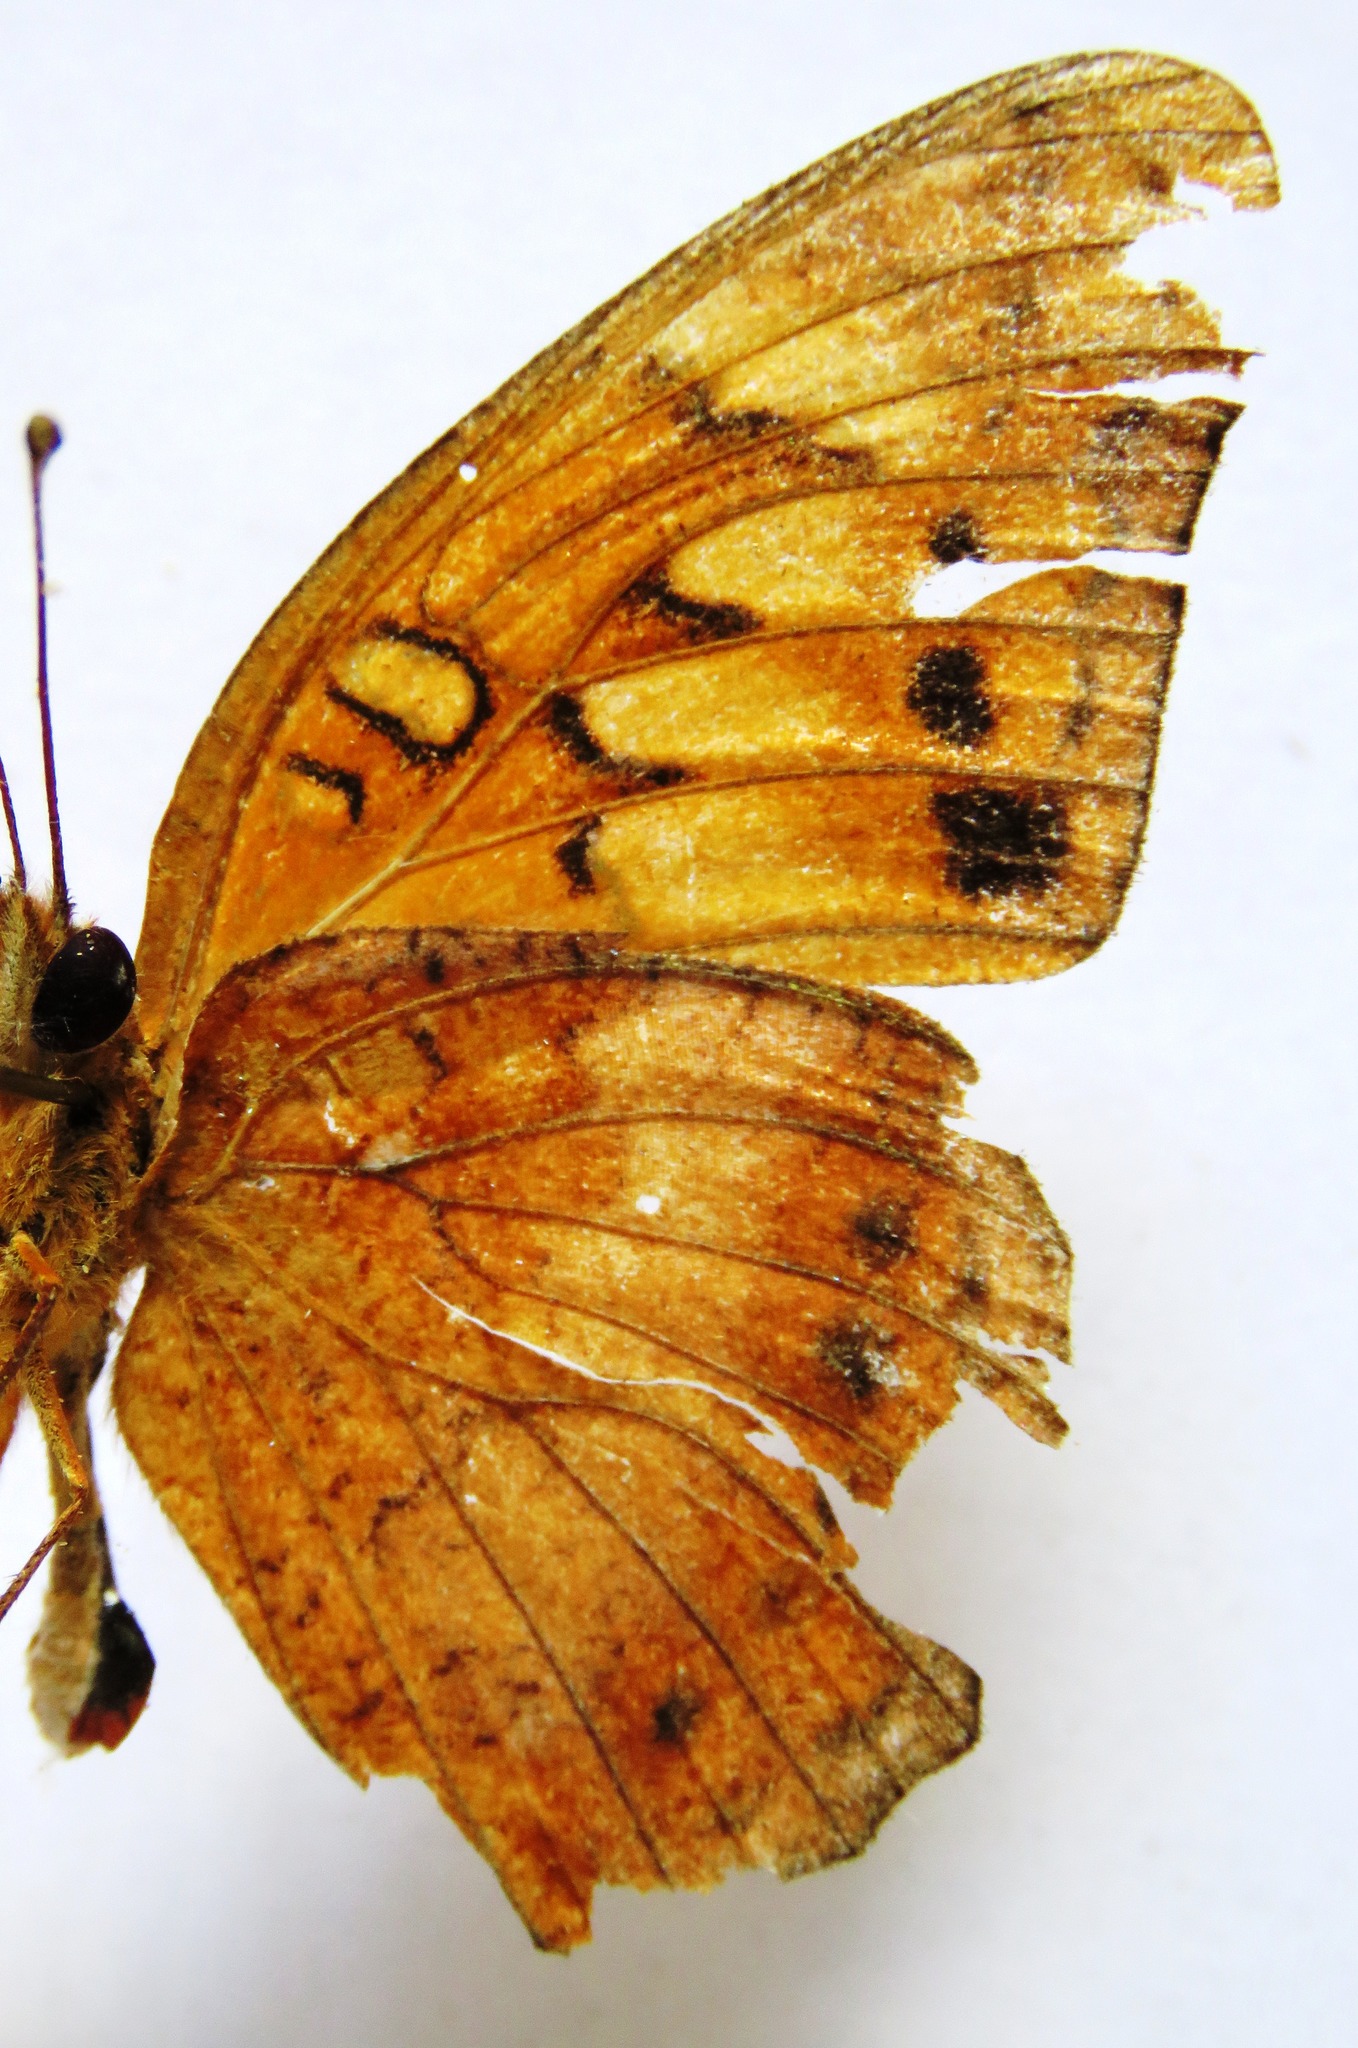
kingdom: Animalia
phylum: Arthropoda
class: Insecta
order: Lepidoptera
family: Nymphalidae
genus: Euptoieta
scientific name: Euptoieta hegesia
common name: Mexican fritillary
